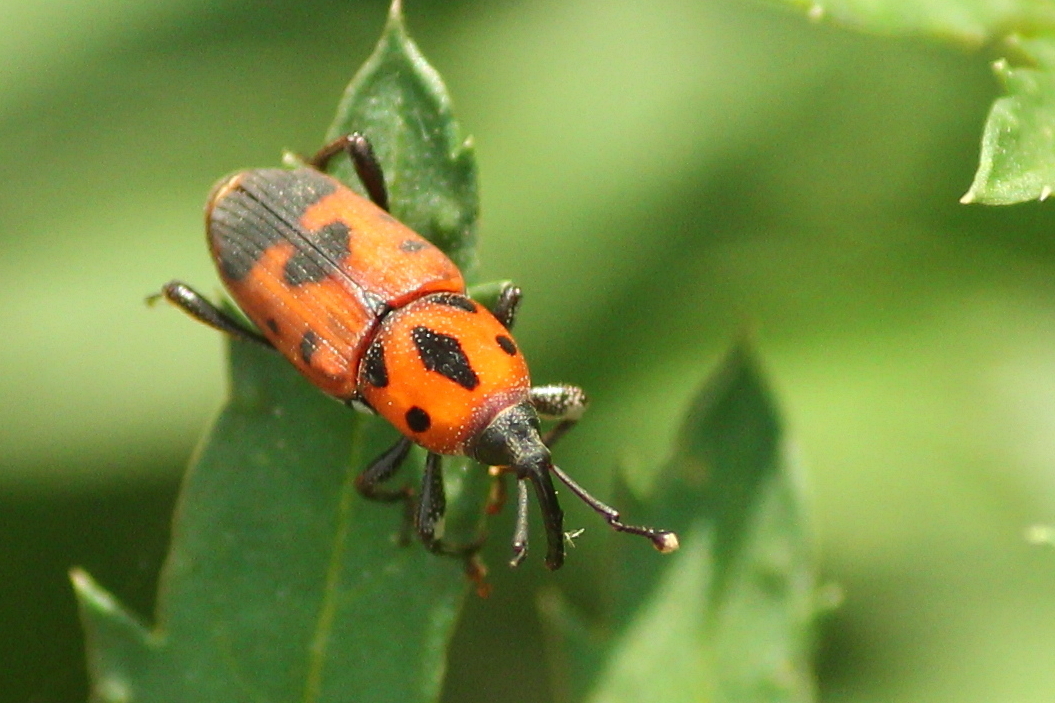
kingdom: Animalia
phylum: Arthropoda
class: Insecta
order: Coleoptera
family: Dryophthoridae
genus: Rhodobaenus
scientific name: Rhodobaenus quinquepunctatus
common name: Cocklebur weevil
